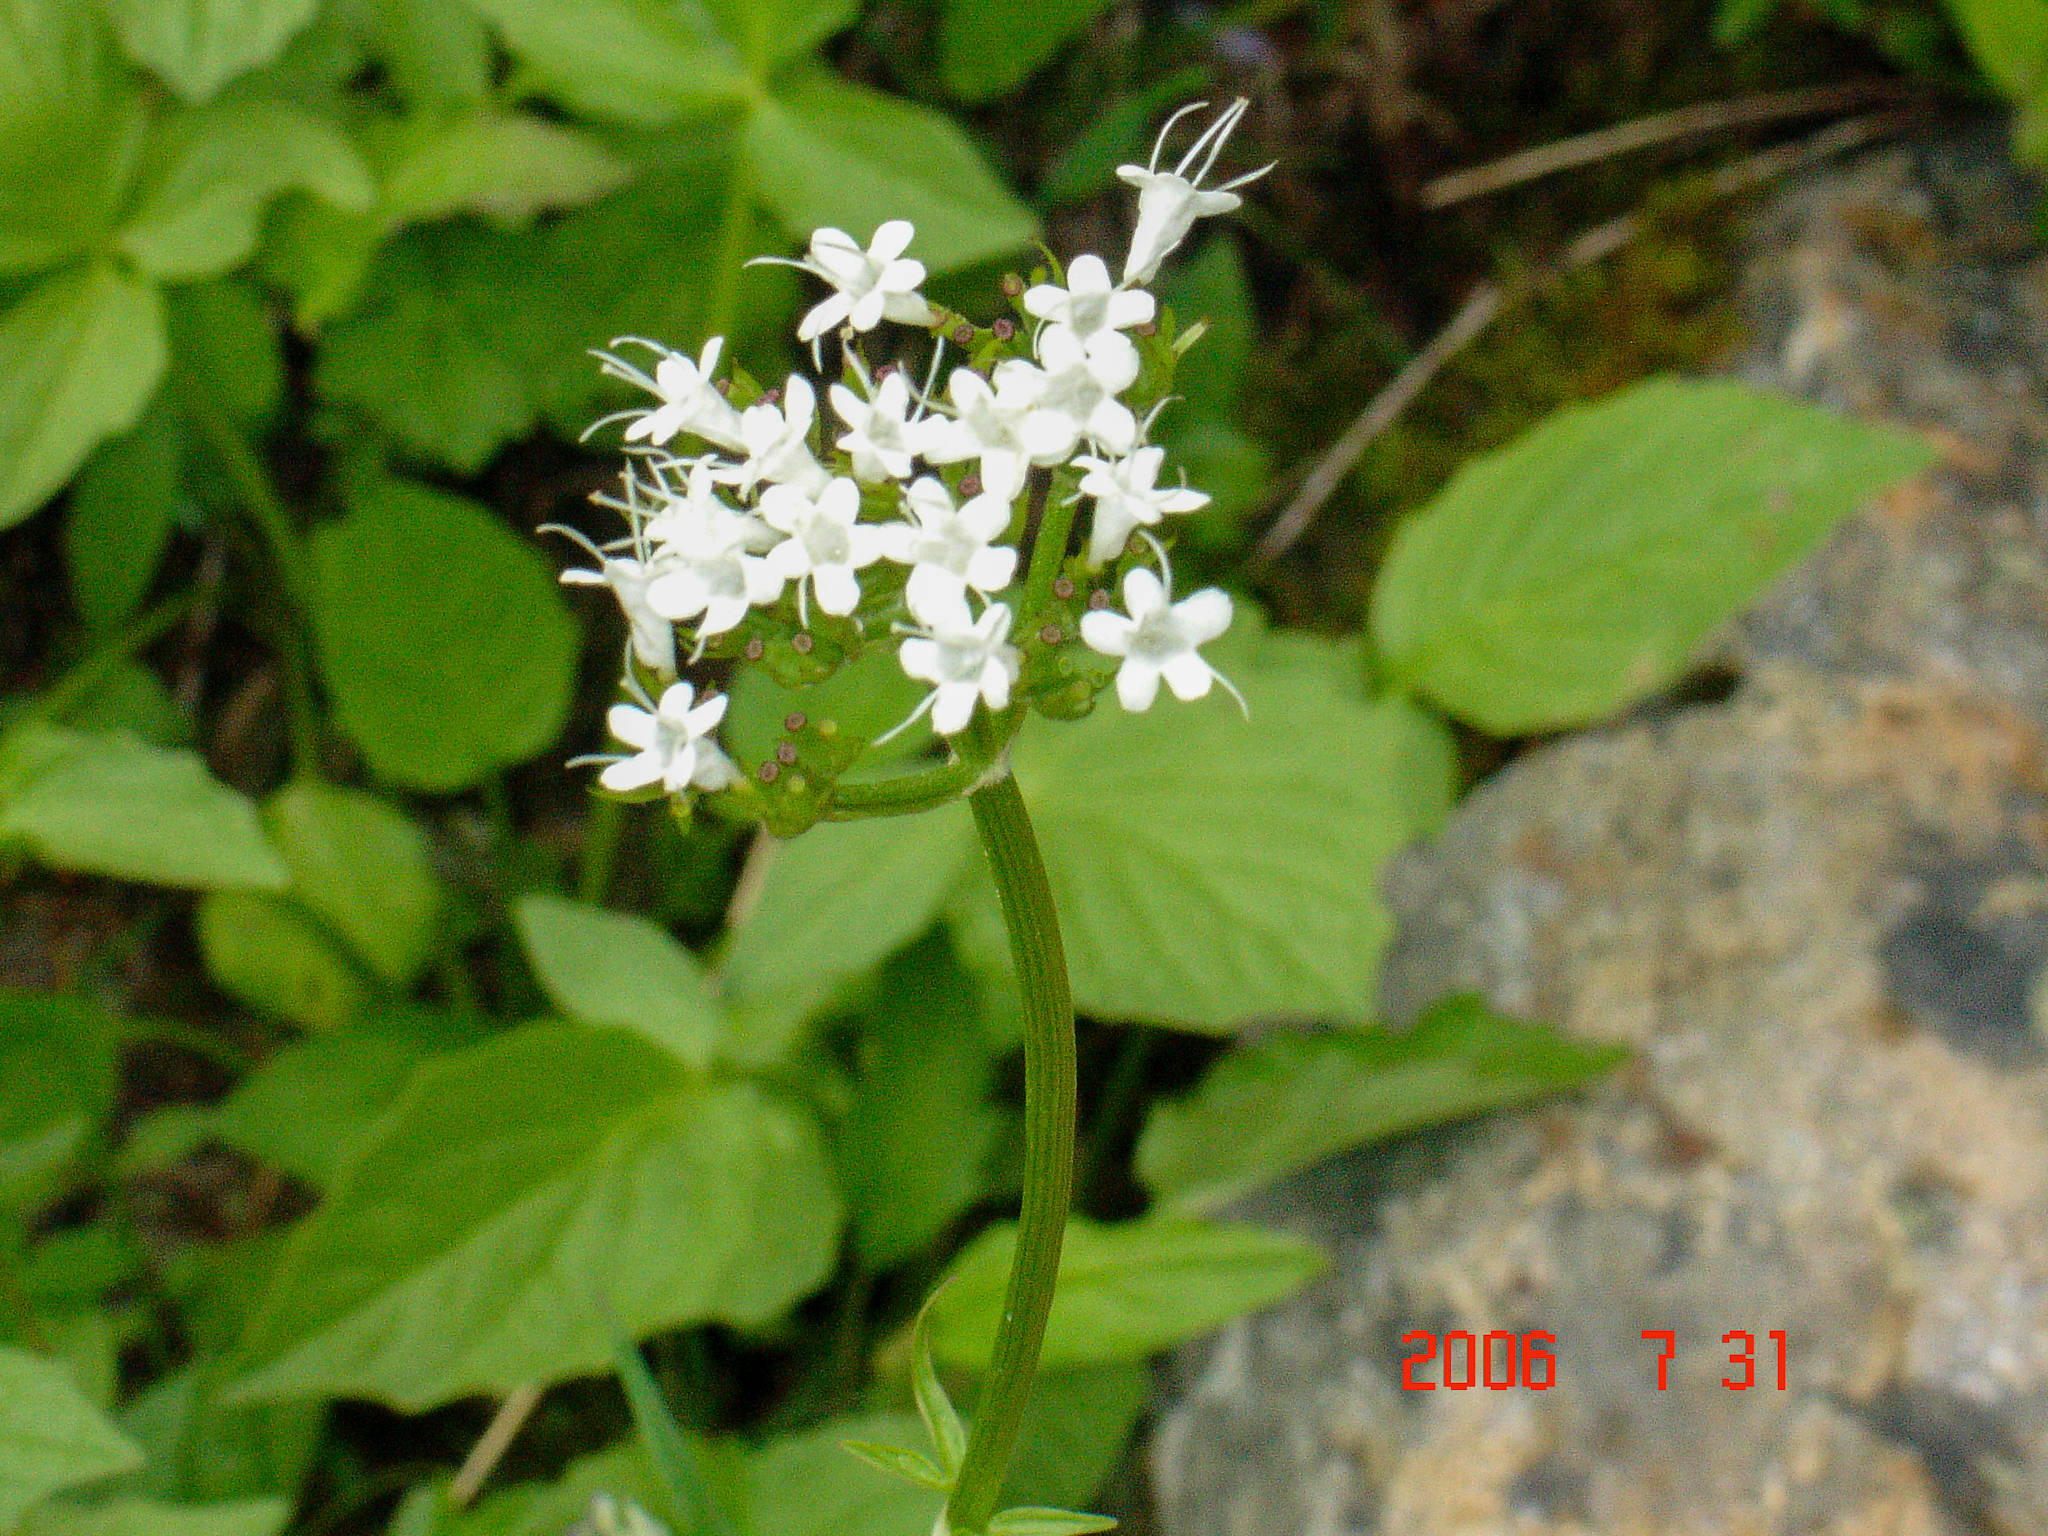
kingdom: Plantae
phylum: Tracheophyta
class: Magnoliopsida
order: Dipsacales
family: Caprifoliaceae
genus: Valeriana
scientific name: Valeriana sitchensis
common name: Pacific valerian
